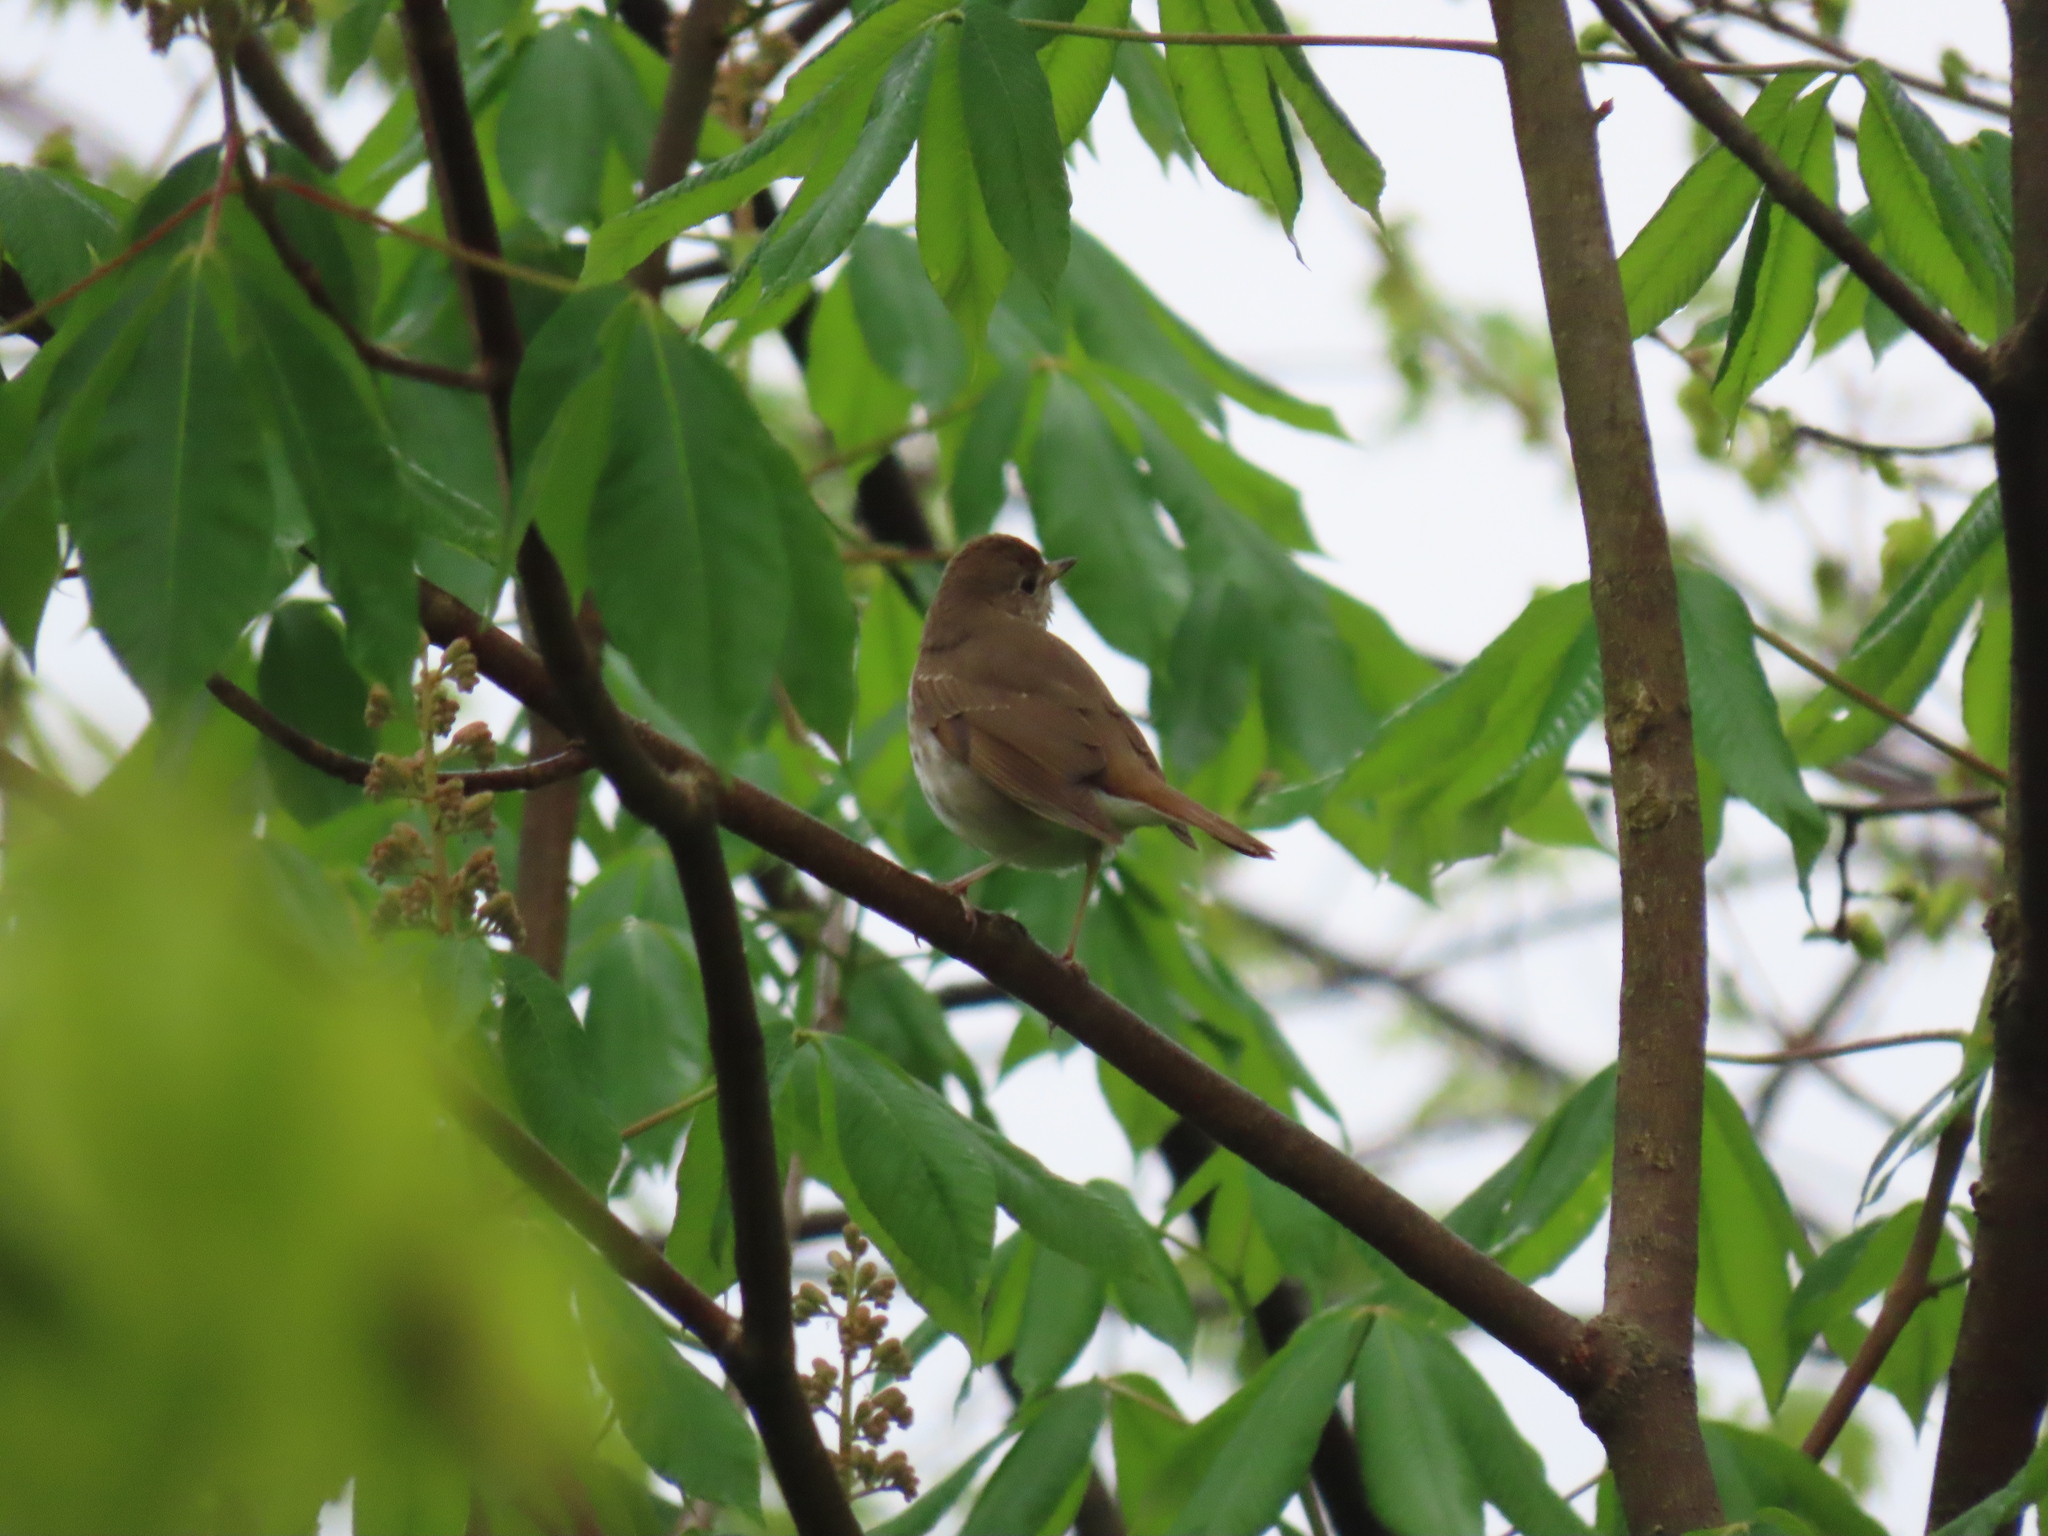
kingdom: Animalia
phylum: Chordata
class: Aves
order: Passeriformes
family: Turdidae
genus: Catharus
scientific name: Catharus guttatus
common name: Hermit thrush
